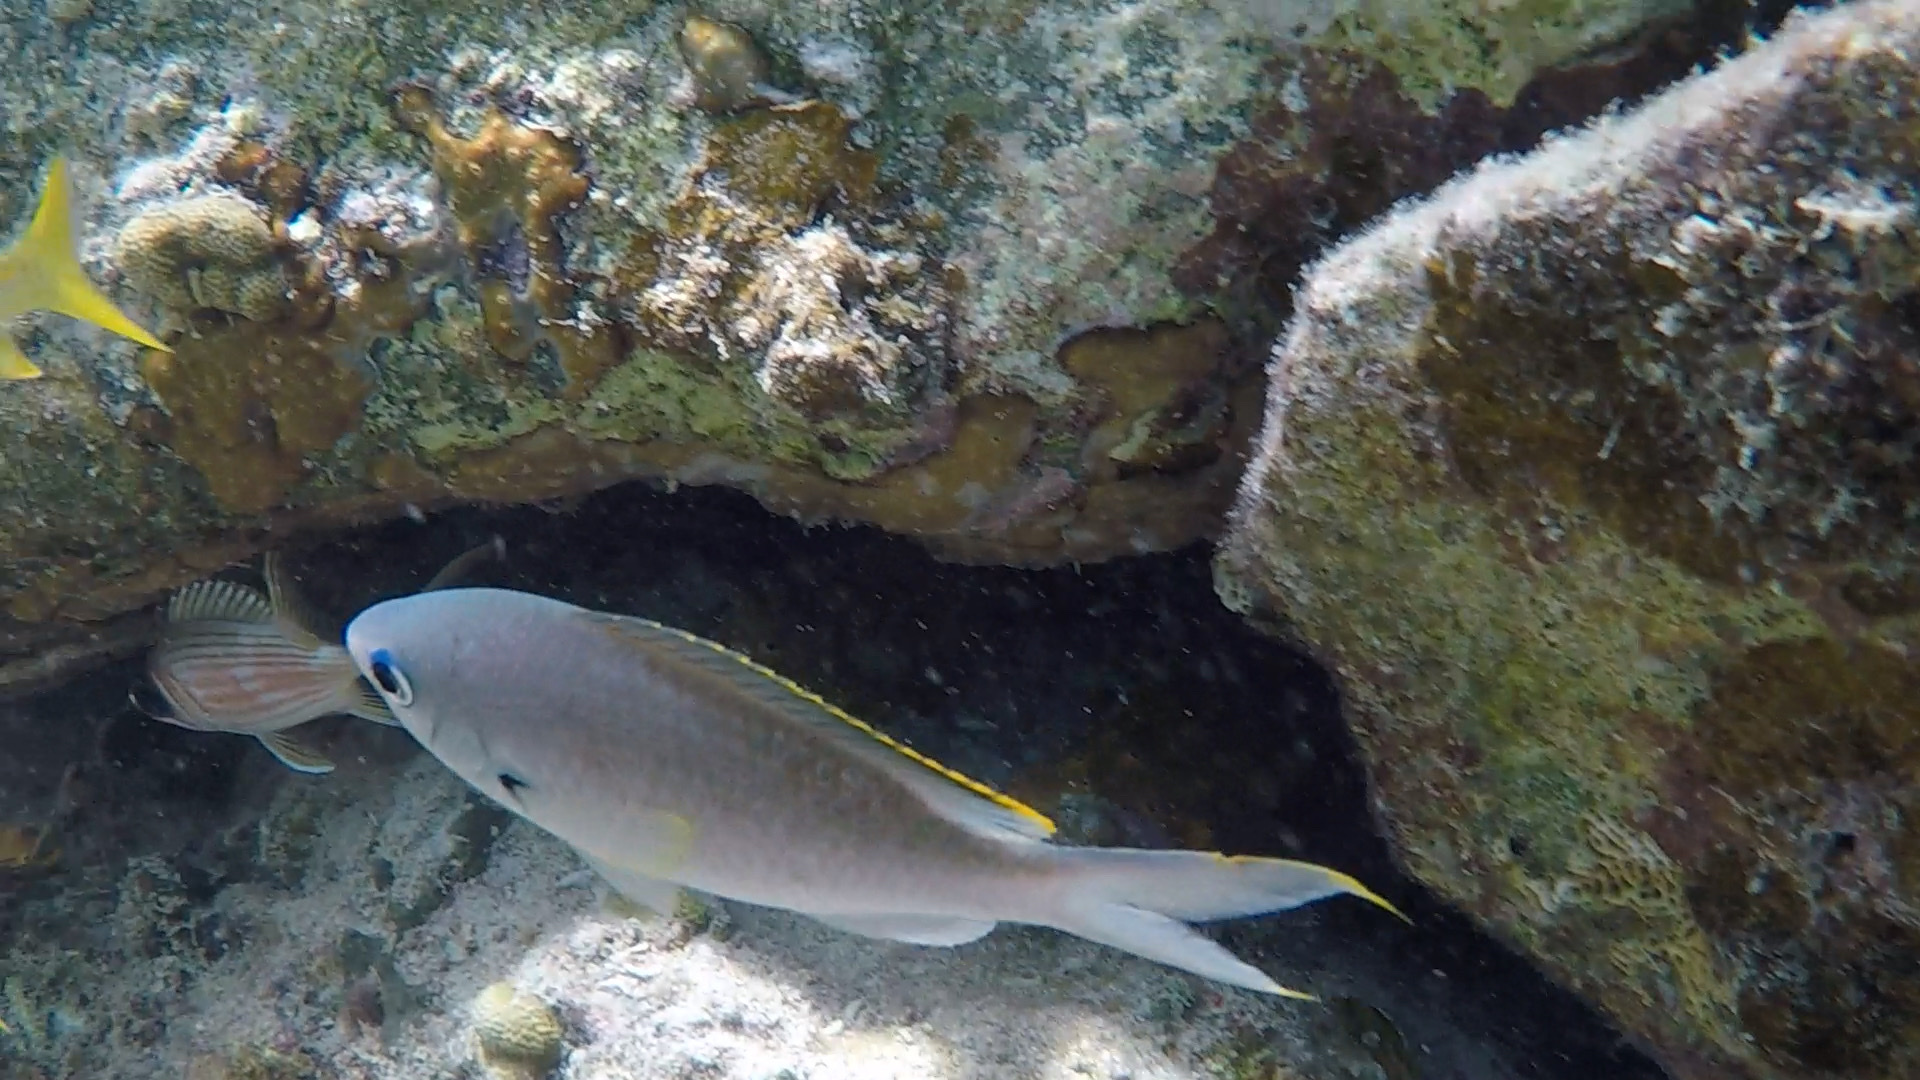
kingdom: Animalia
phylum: Chordata
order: Perciformes
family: Pomacentridae
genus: Chromis
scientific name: Chromis multilineata
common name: Brown chromis
